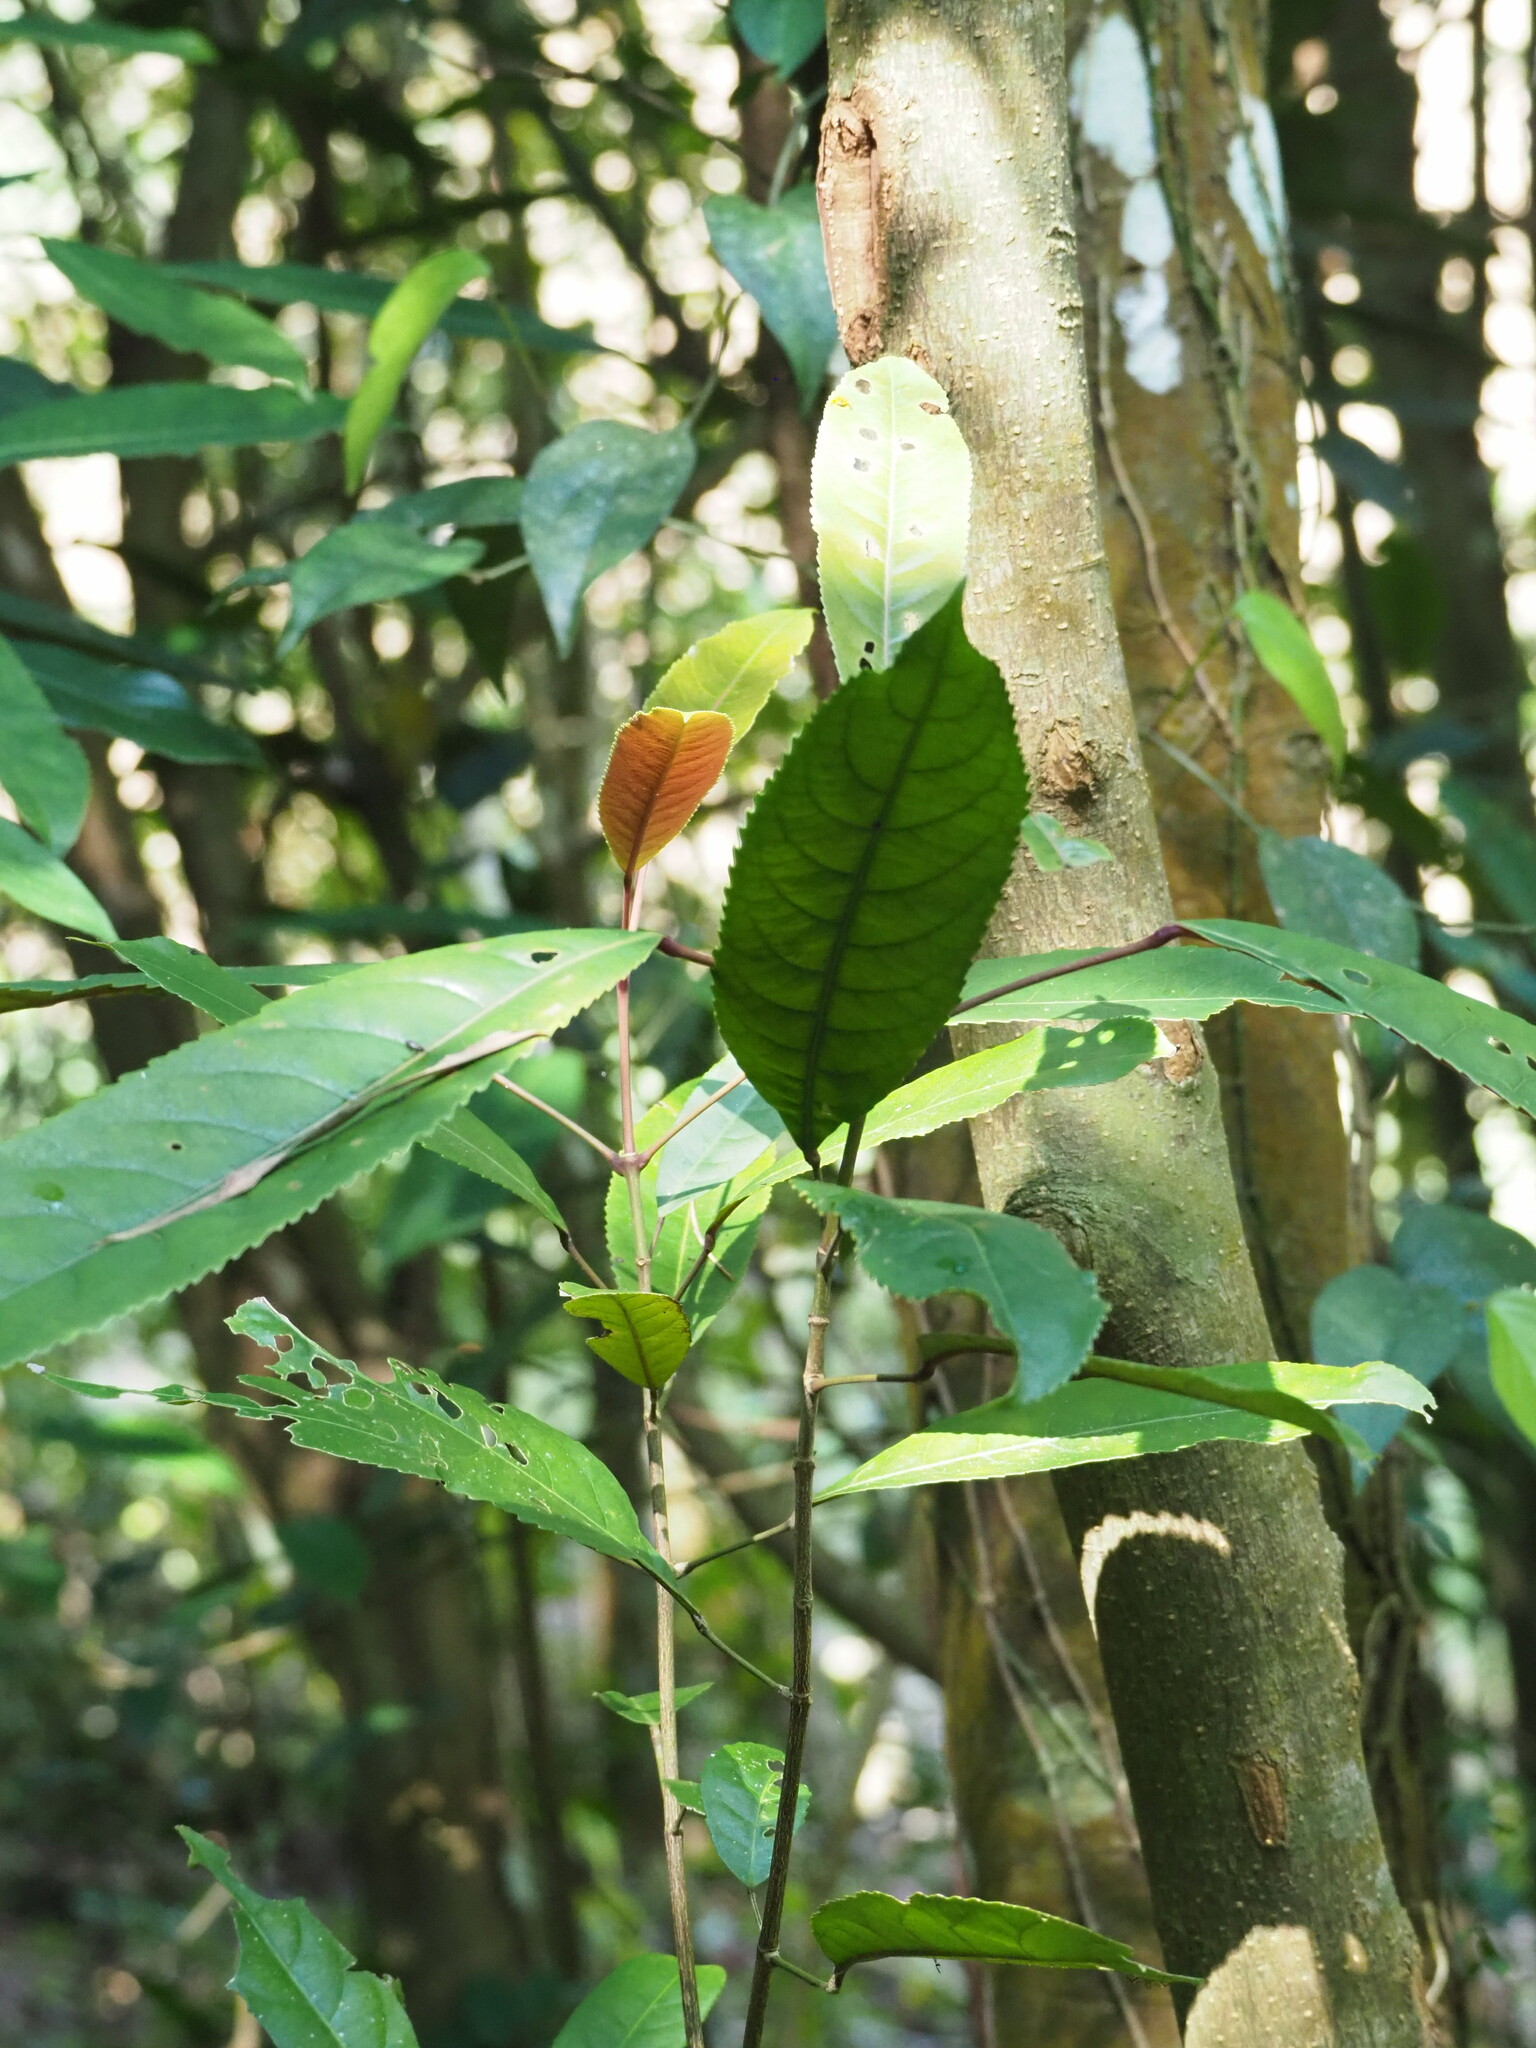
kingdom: Plantae
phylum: Tracheophyta
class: Magnoliopsida
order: Crossosomatales
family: Staphyleaceae
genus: Turpinia
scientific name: Turpinia formosana
